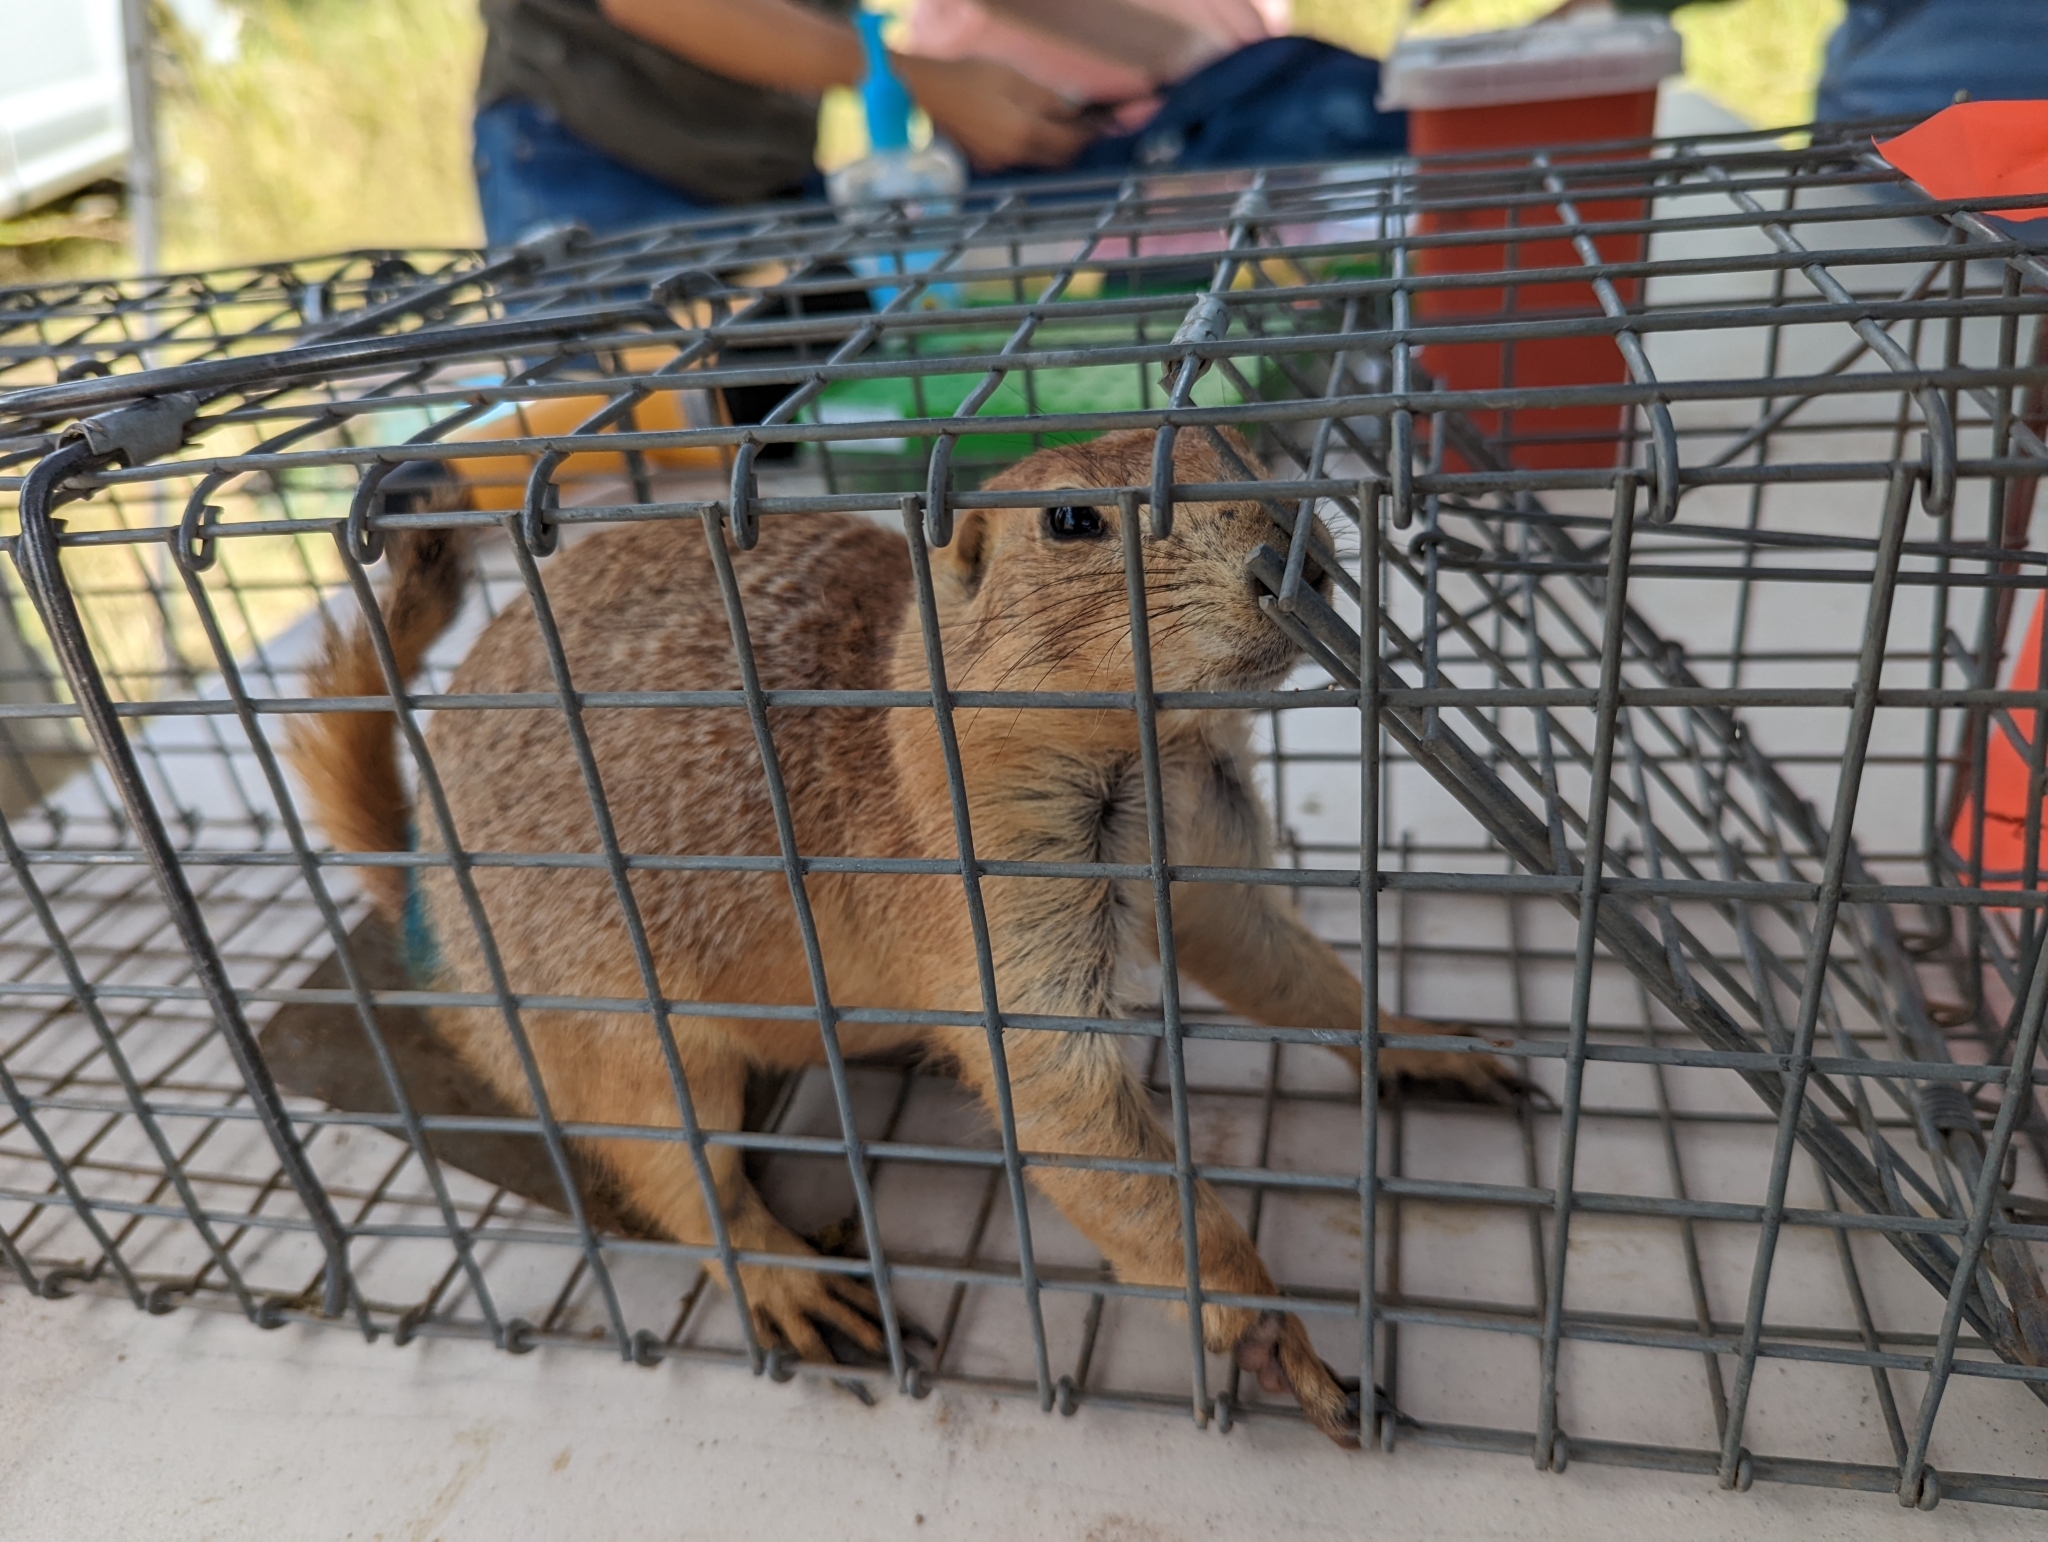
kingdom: Animalia
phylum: Chordata
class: Mammalia
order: Rodentia
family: Sciuridae
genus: Cynomys
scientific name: Cynomys ludovicianus
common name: Black-tailed prairie dog
